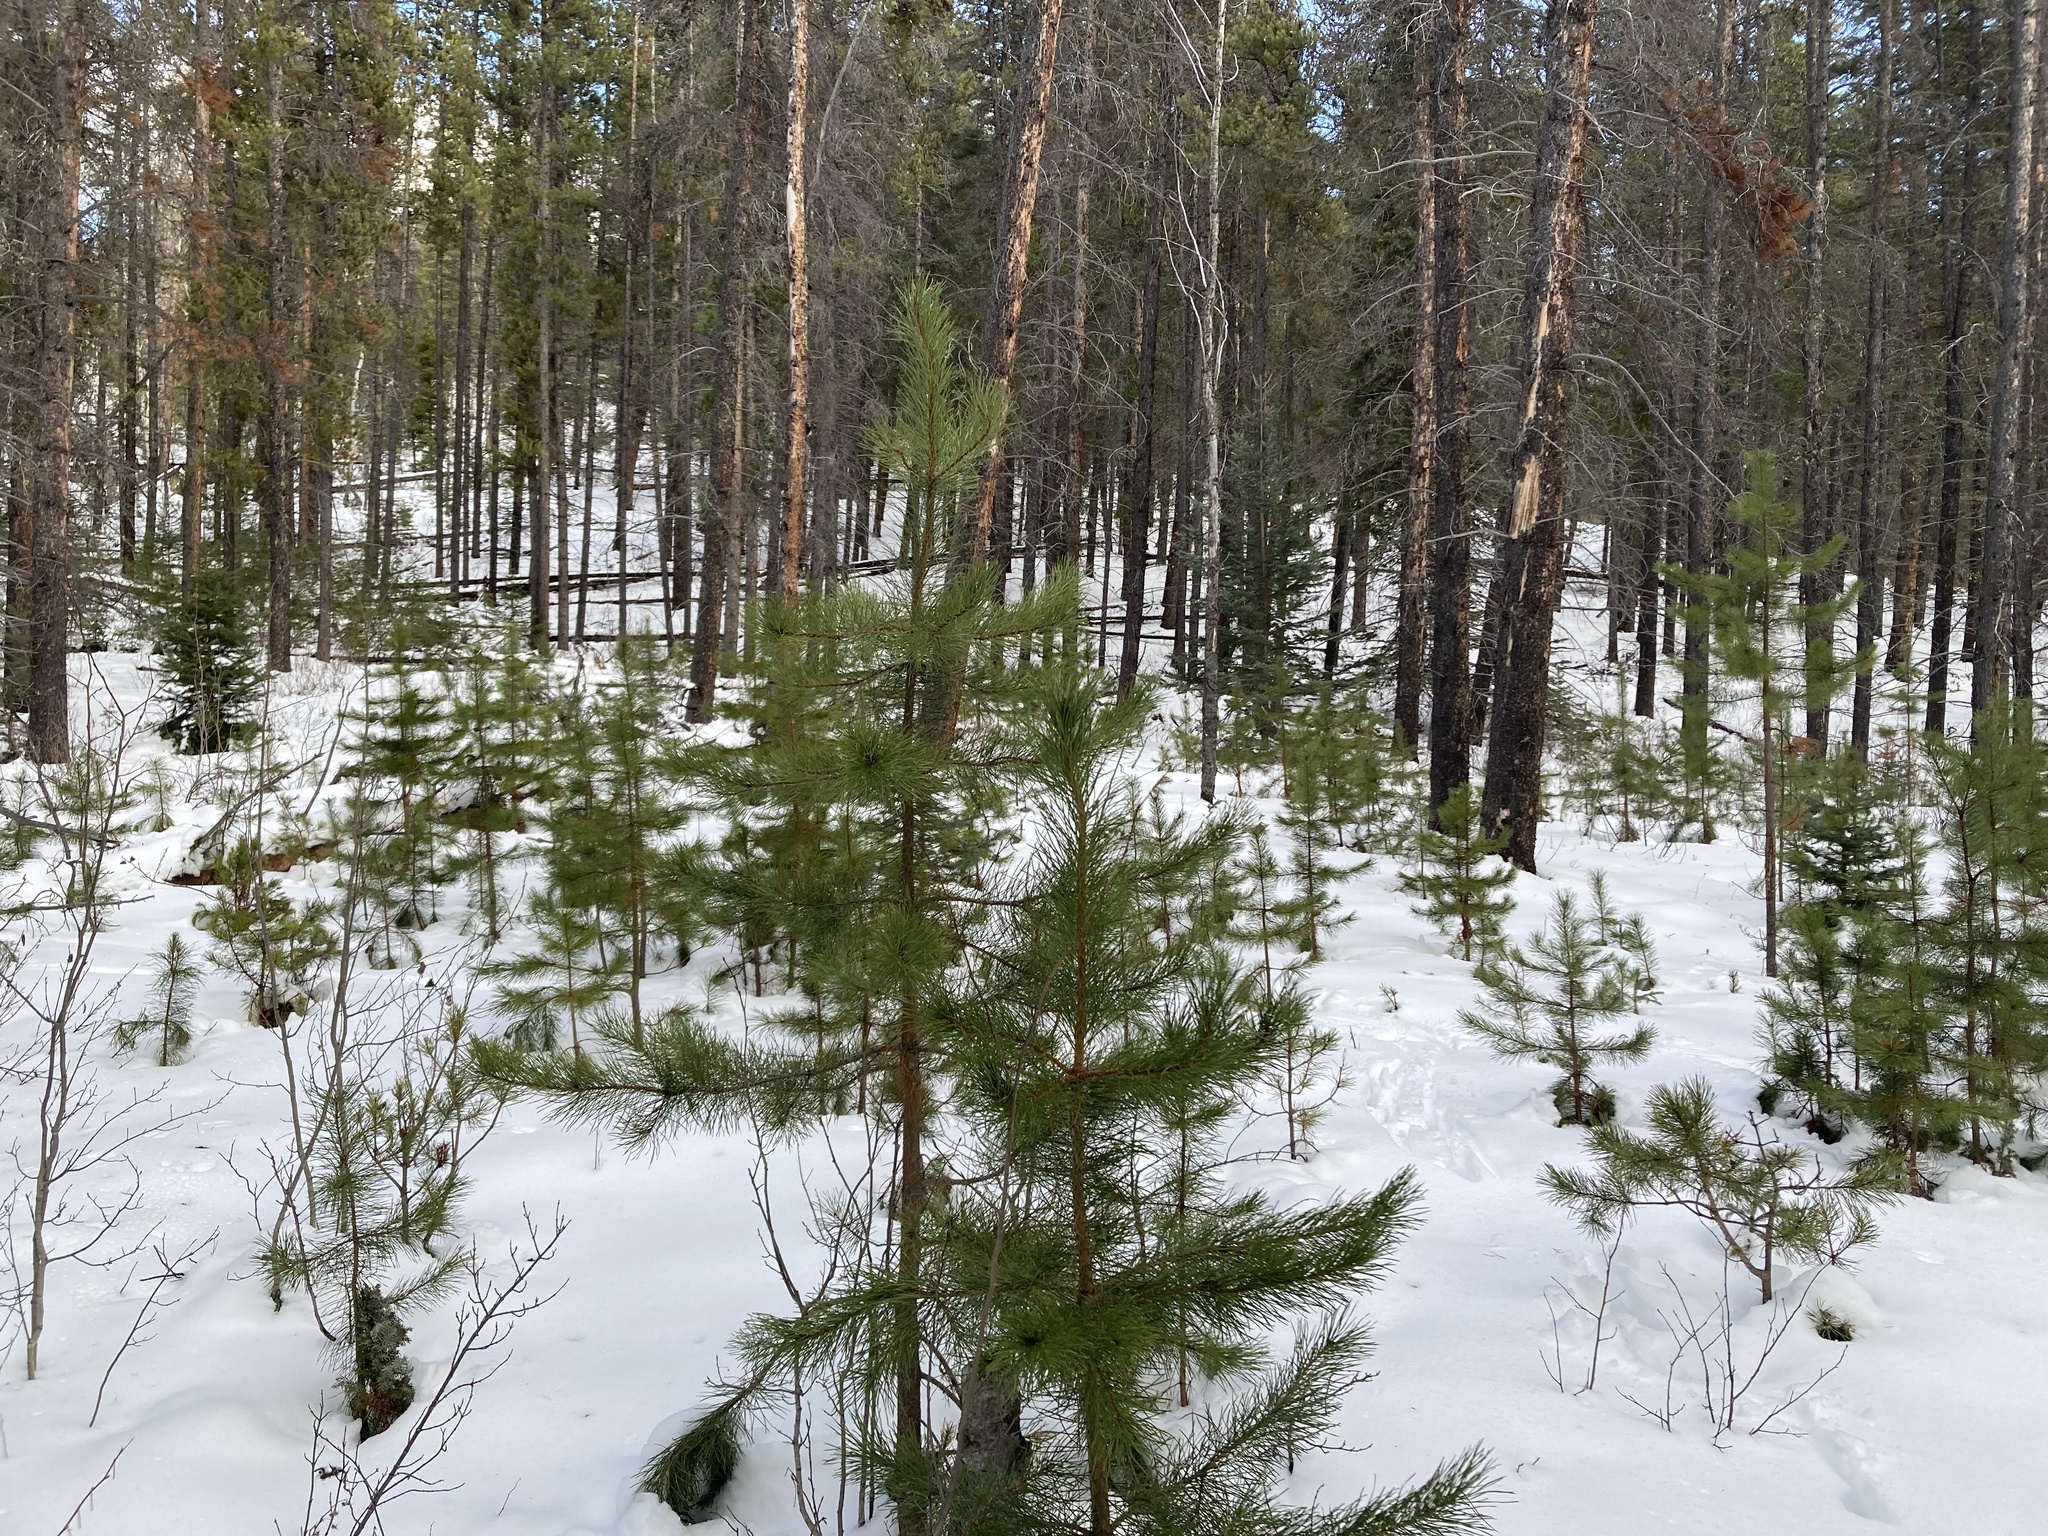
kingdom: Plantae
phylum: Tracheophyta
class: Pinopsida
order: Pinales
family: Pinaceae
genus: Pinus
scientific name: Pinus contorta
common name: Lodgepole pine
